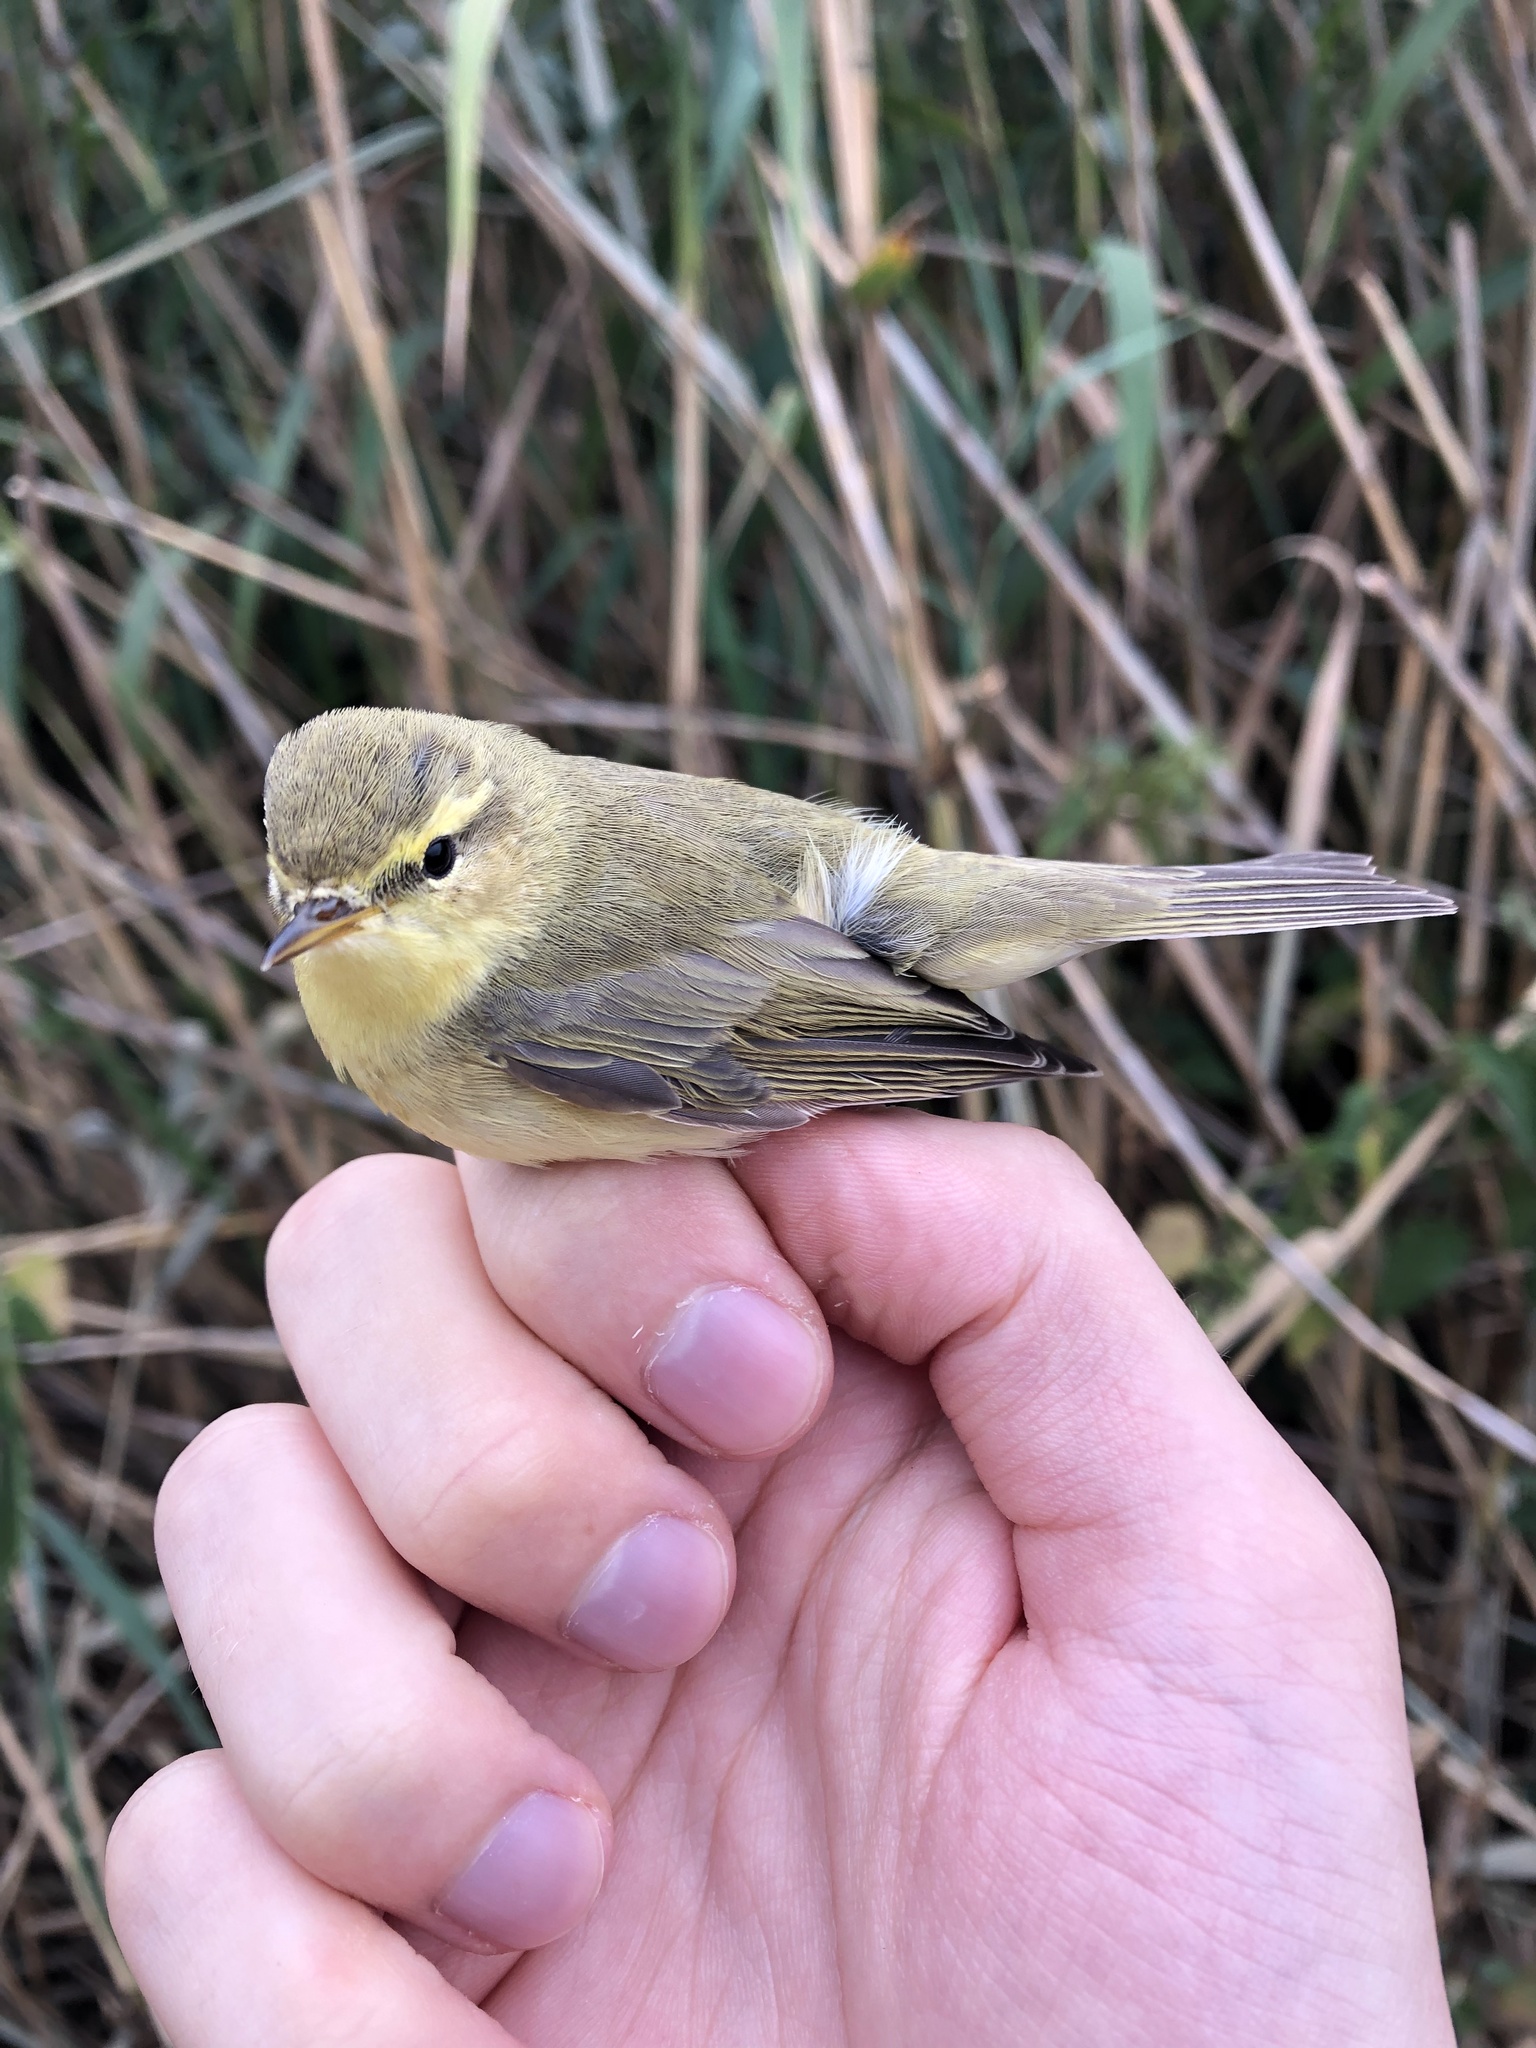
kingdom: Animalia
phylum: Chordata
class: Aves
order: Passeriformes
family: Phylloscopidae
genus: Phylloscopus
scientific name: Phylloscopus trochilus
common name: Willow warbler
